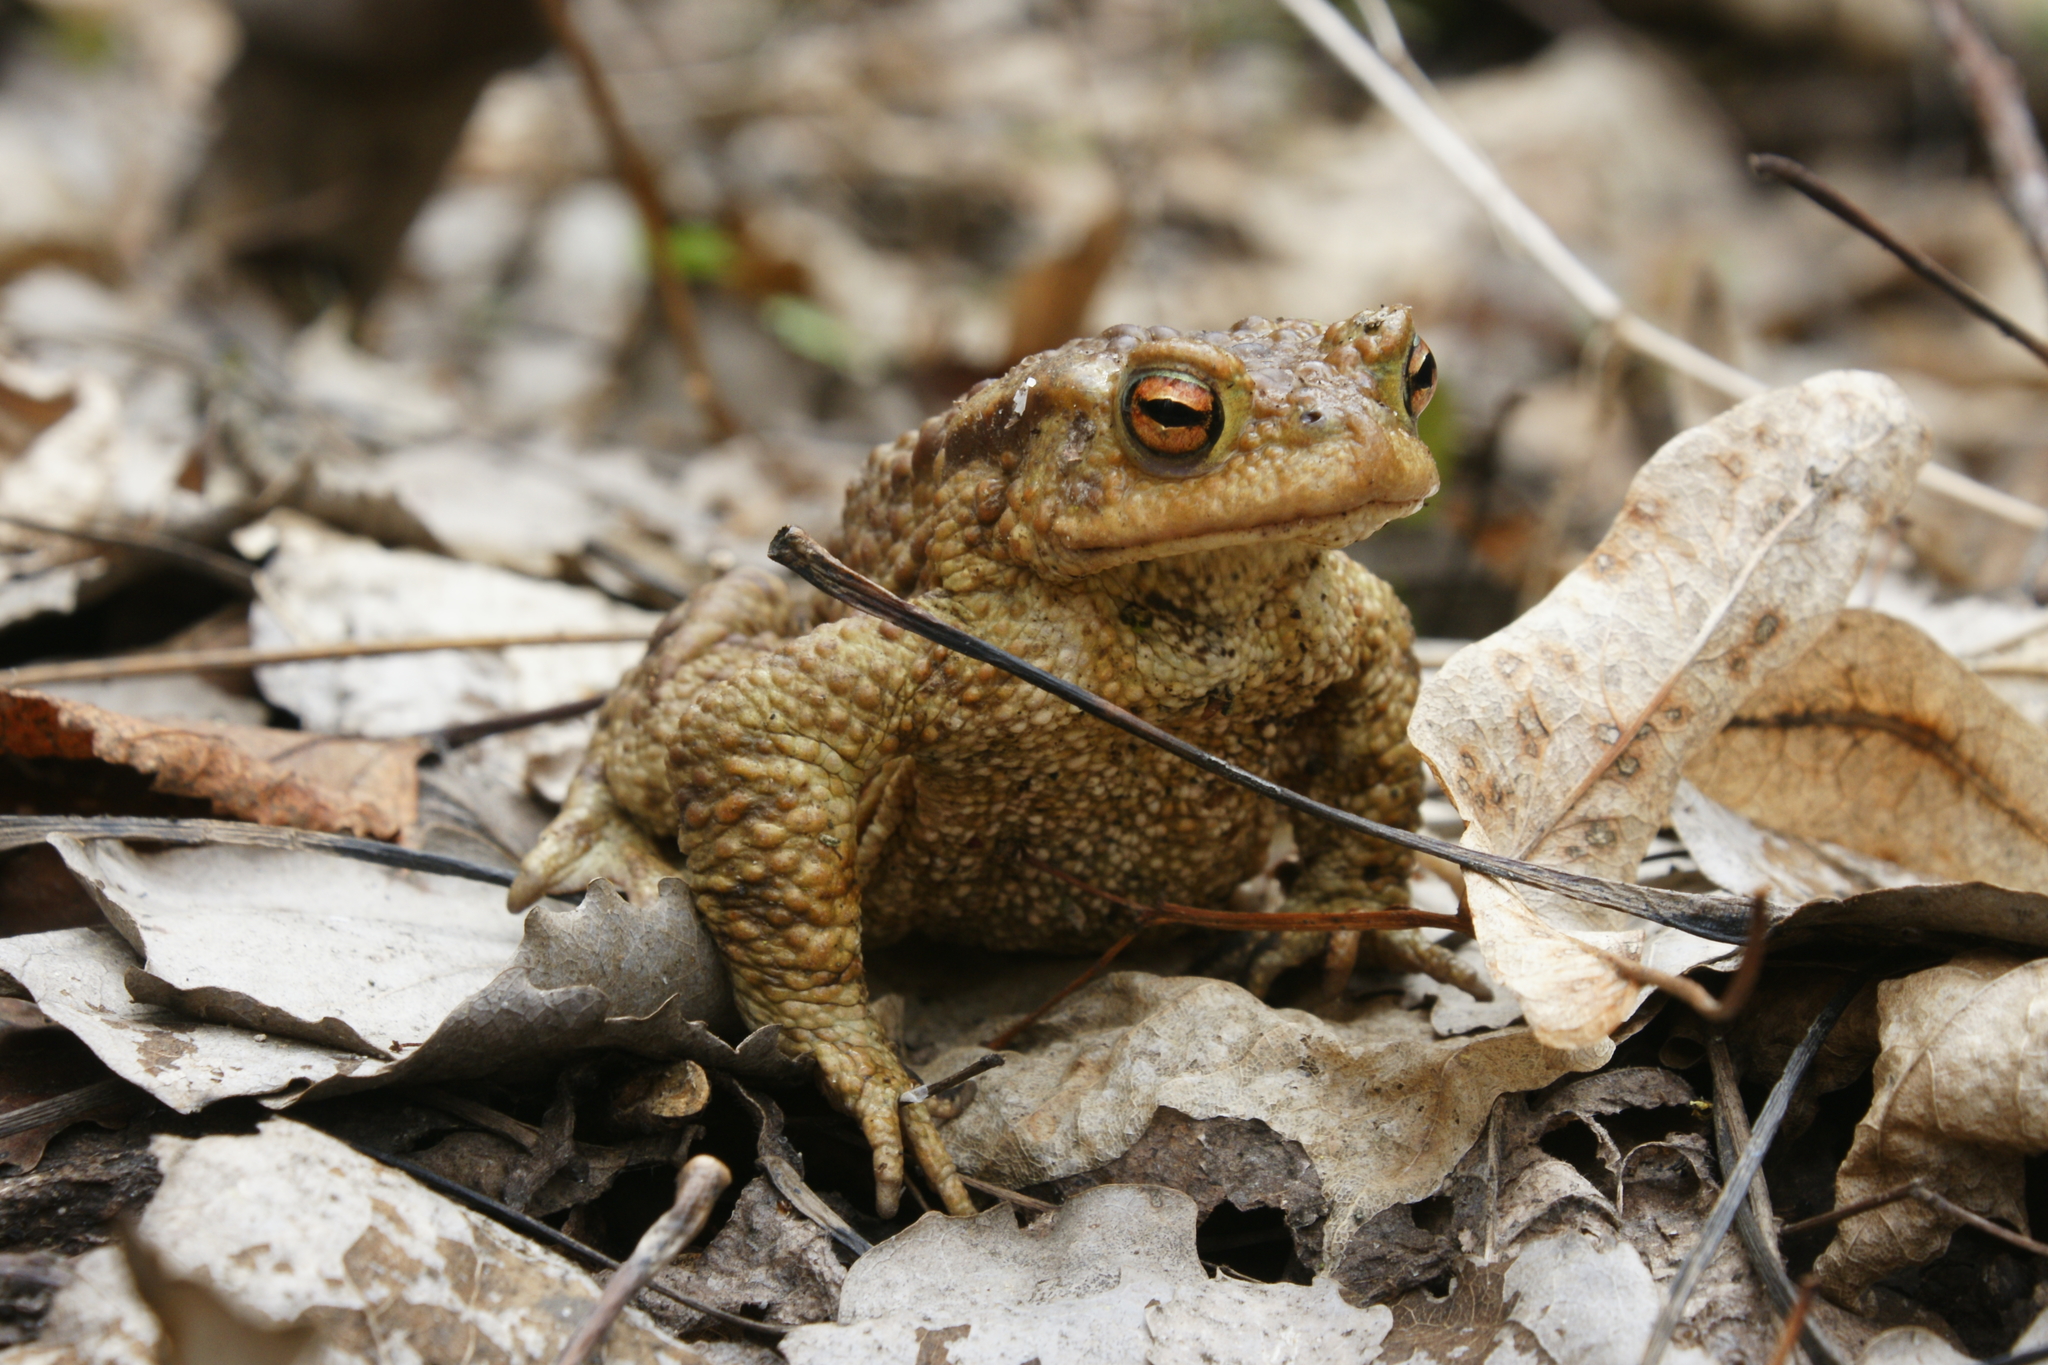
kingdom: Animalia
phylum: Chordata
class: Amphibia
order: Anura
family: Bufonidae
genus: Bufo
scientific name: Bufo bufo
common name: Common toad
